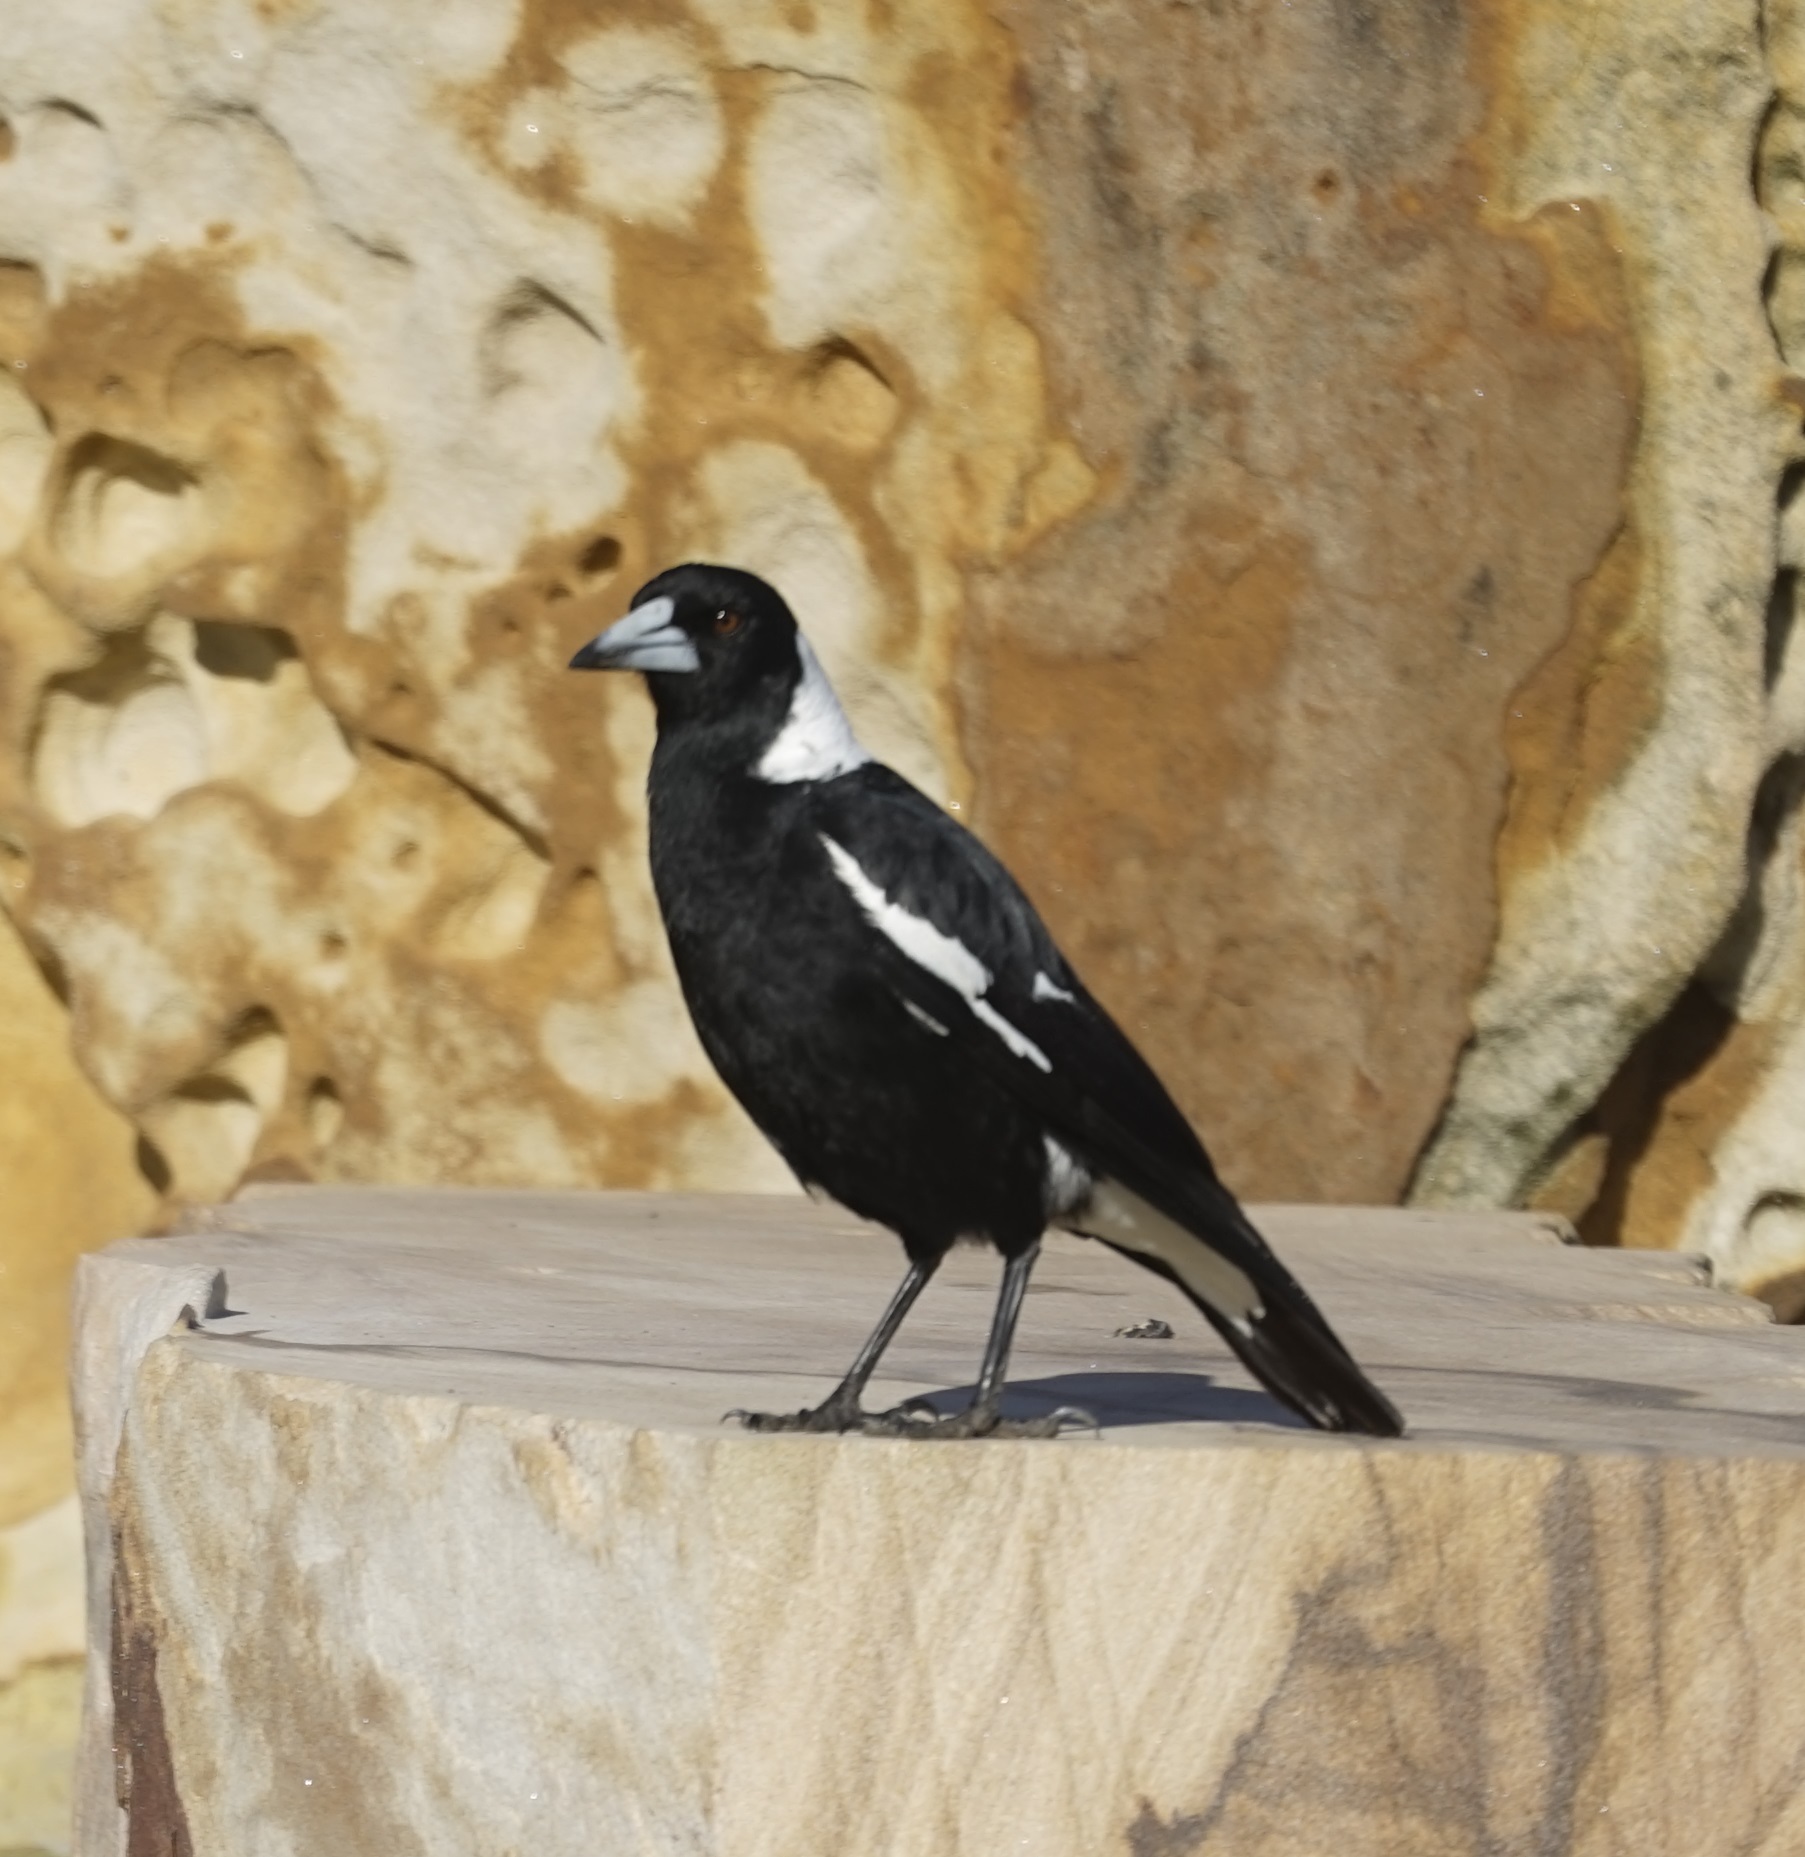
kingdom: Animalia
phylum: Chordata
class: Aves
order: Passeriformes
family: Cracticidae
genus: Gymnorhina
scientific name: Gymnorhina tibicen
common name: Australian magpie
